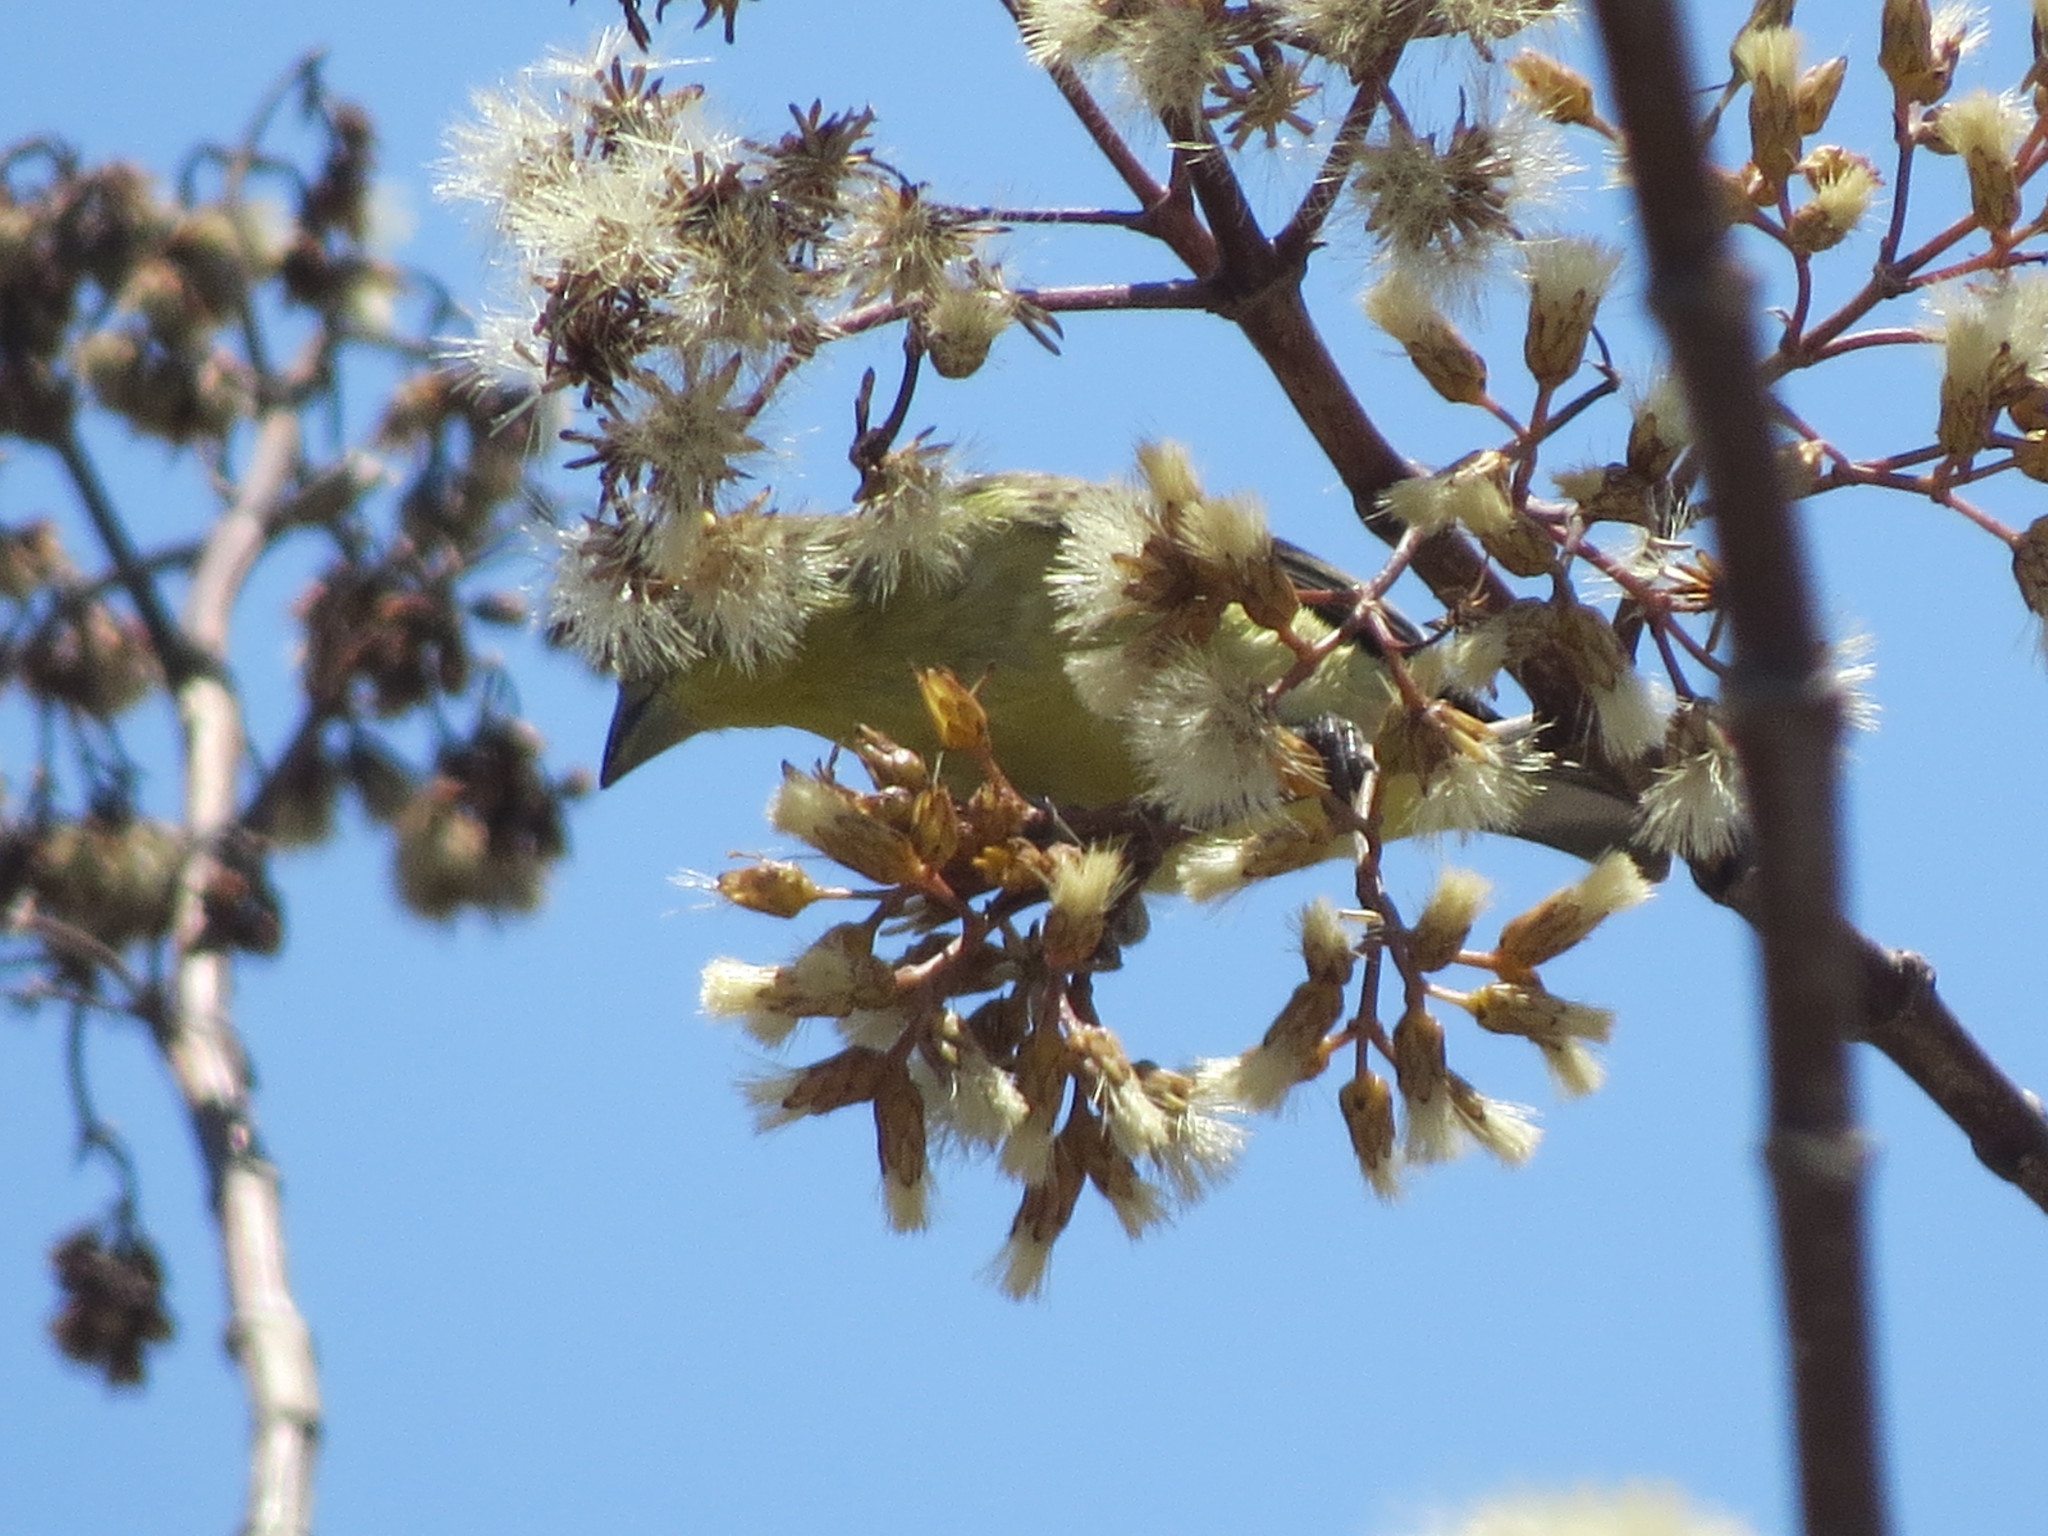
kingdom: Animalia
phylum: Chordata
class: Aves
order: Passeriformes
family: Fringillidae
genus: Spinus
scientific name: Spinus psaltria
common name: Lesser goldfinch
